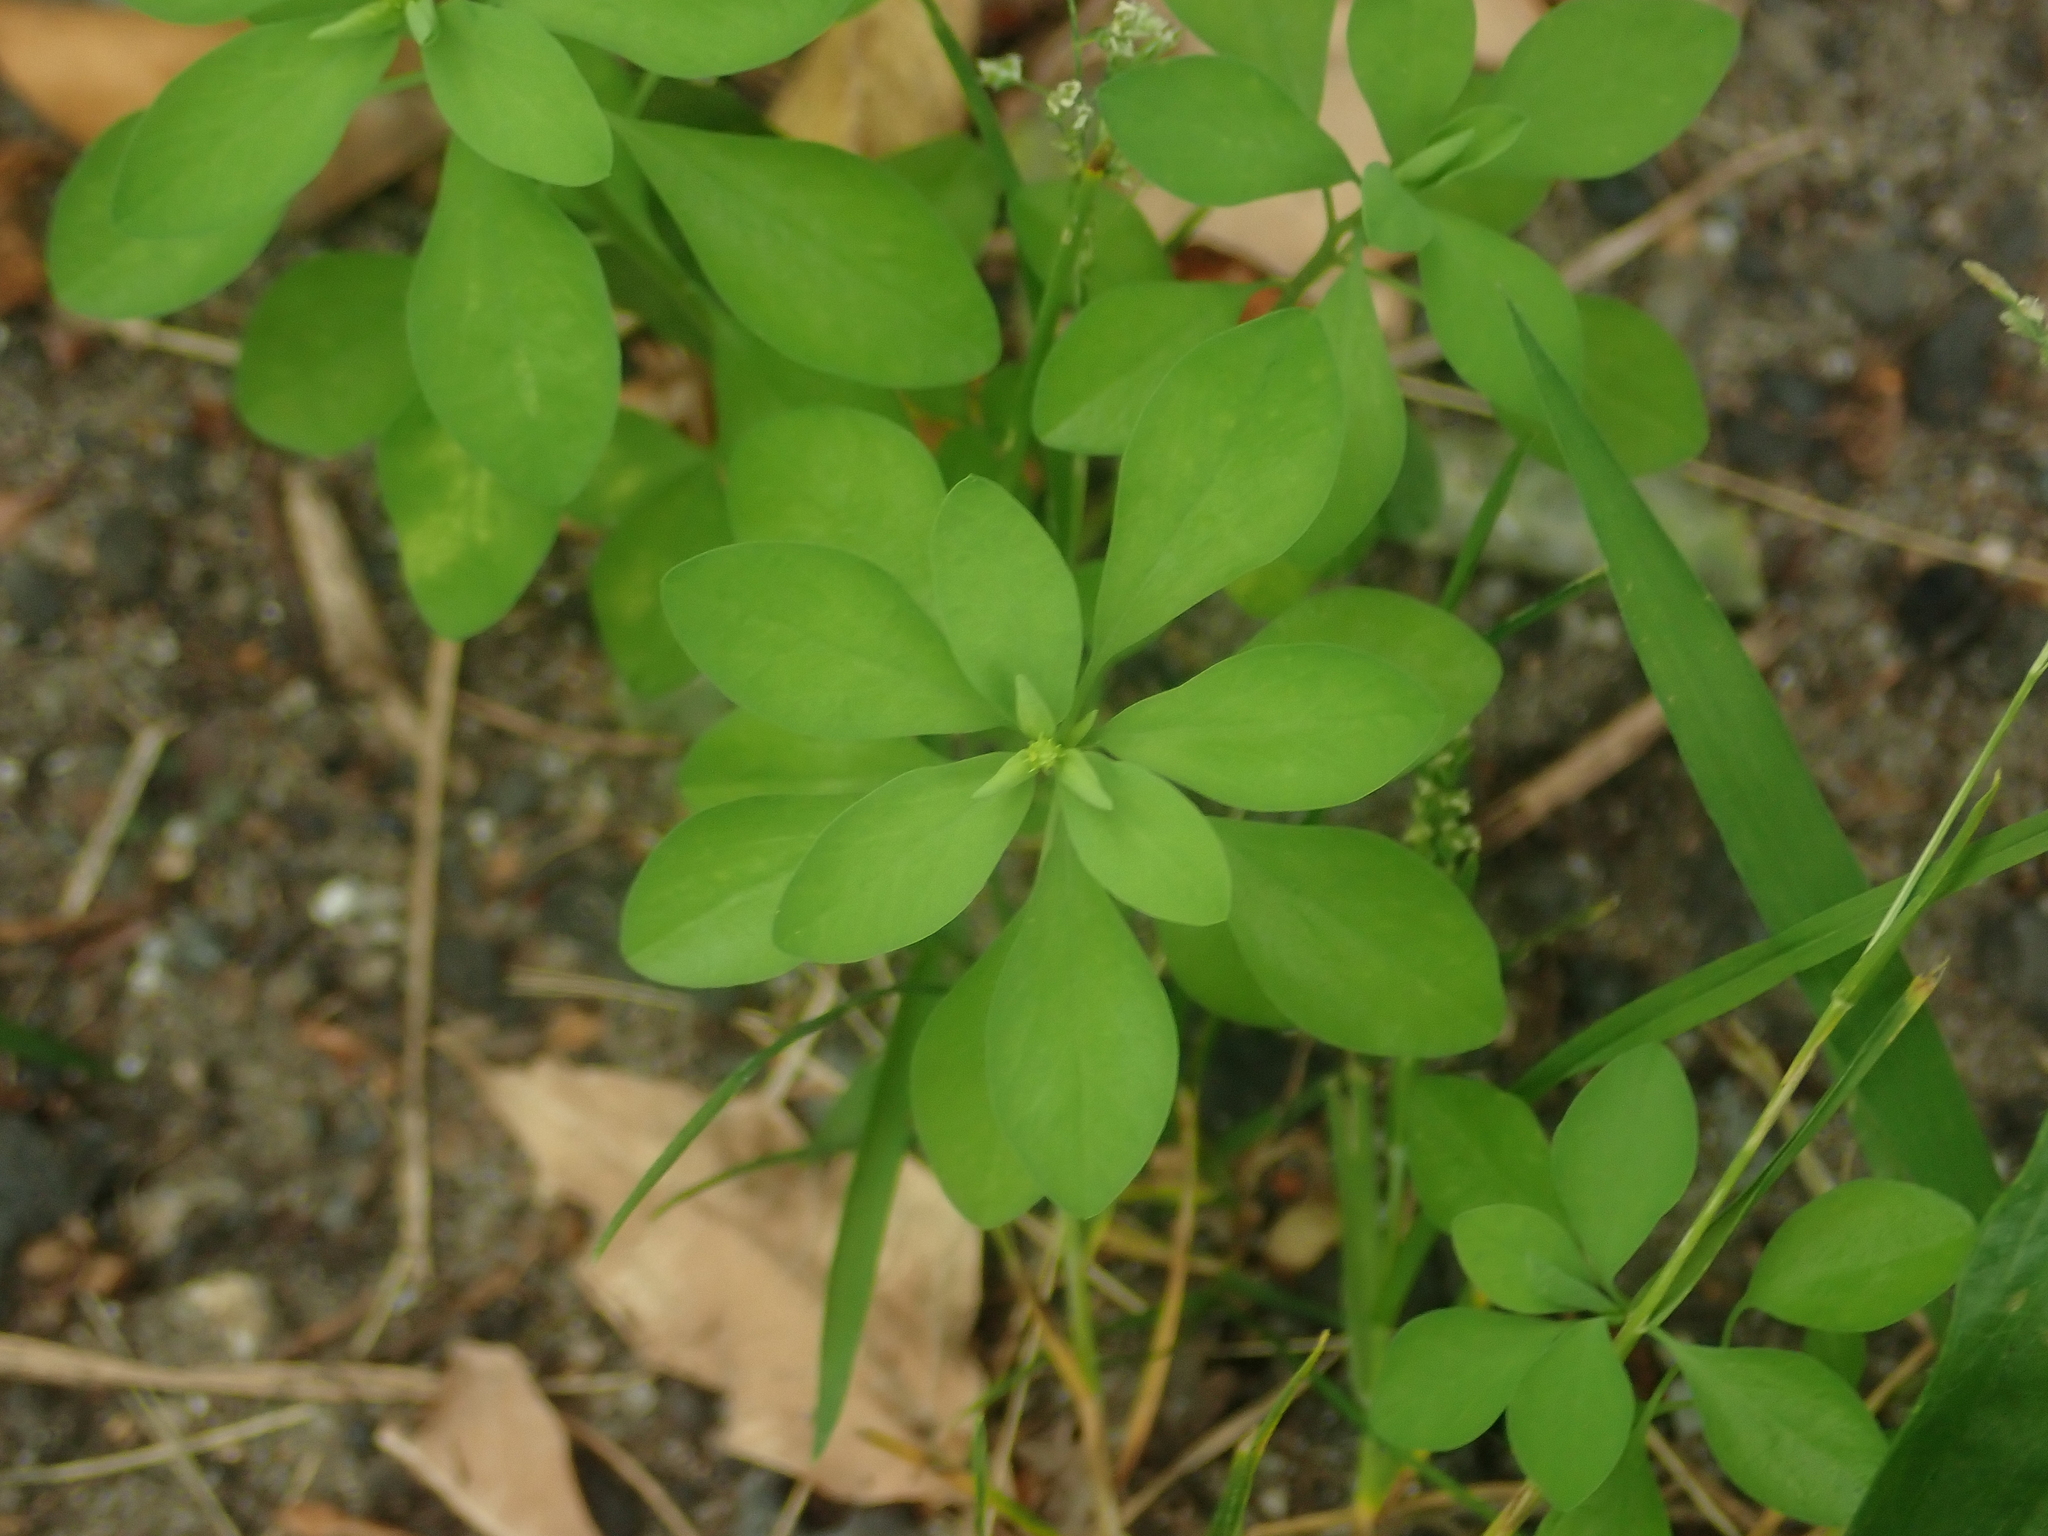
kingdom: Plantae
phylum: Tracheophyta
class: Magnoliopsida
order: Malpighiales
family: Euphorbiaceae
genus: Euphorbia
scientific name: Euphorbia peplus
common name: Petty spurge
